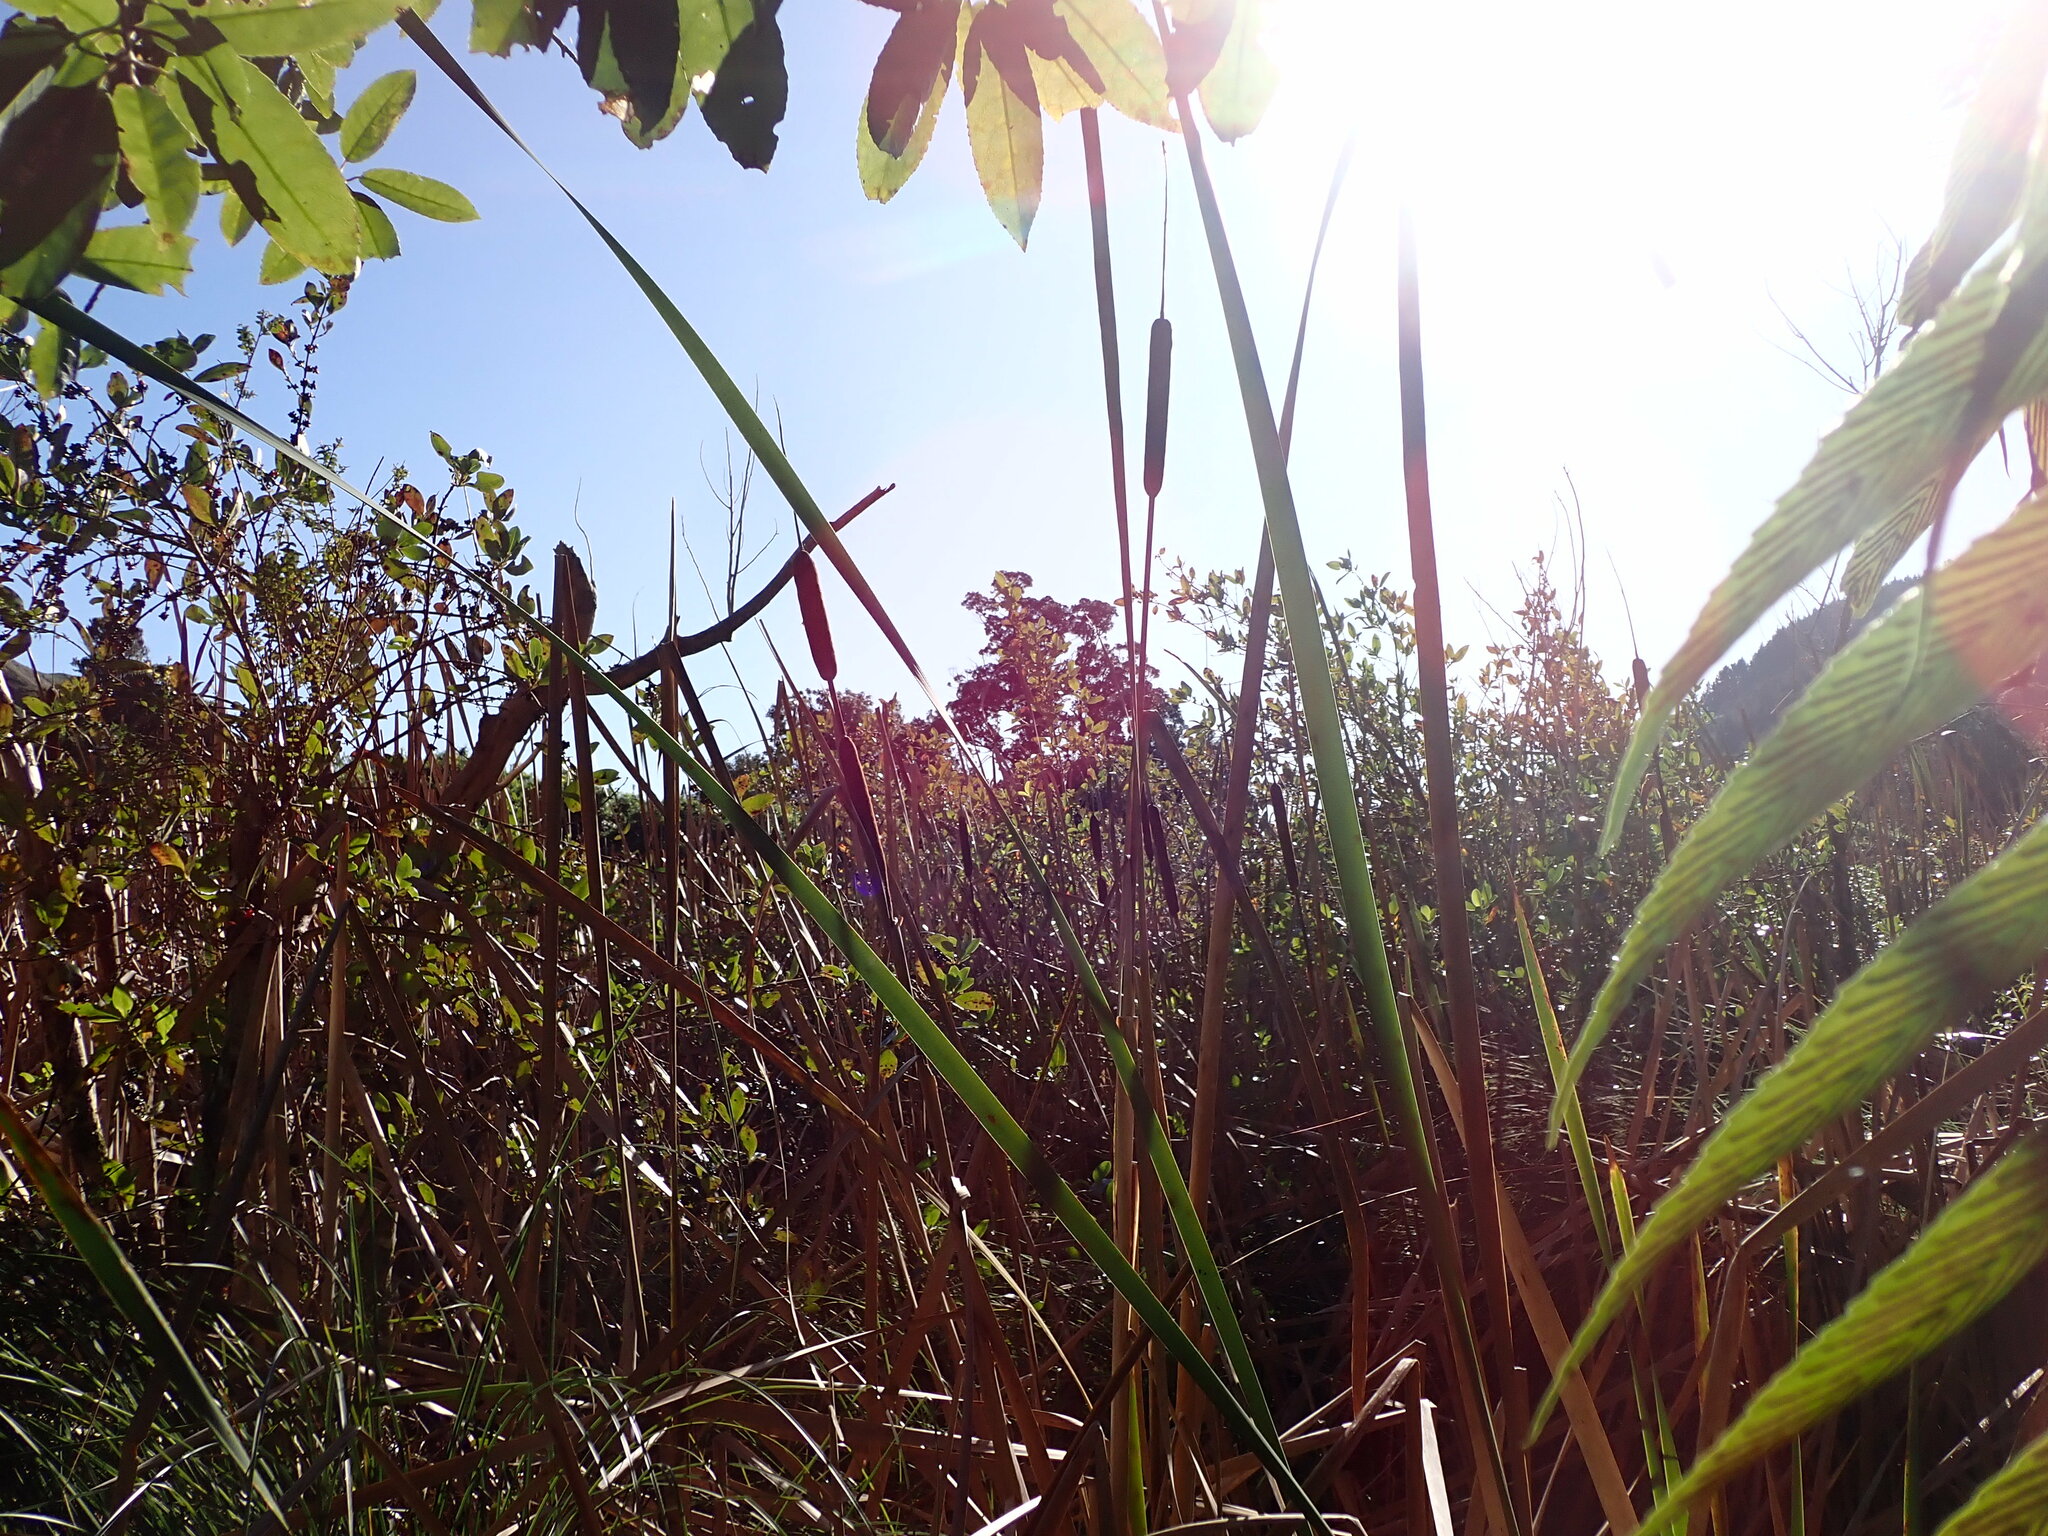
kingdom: Plantae
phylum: Tracheophyta
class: Liliopsida
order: Poales
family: Typhaceae
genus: Typha
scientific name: Typha orientalis
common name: Bullrush
